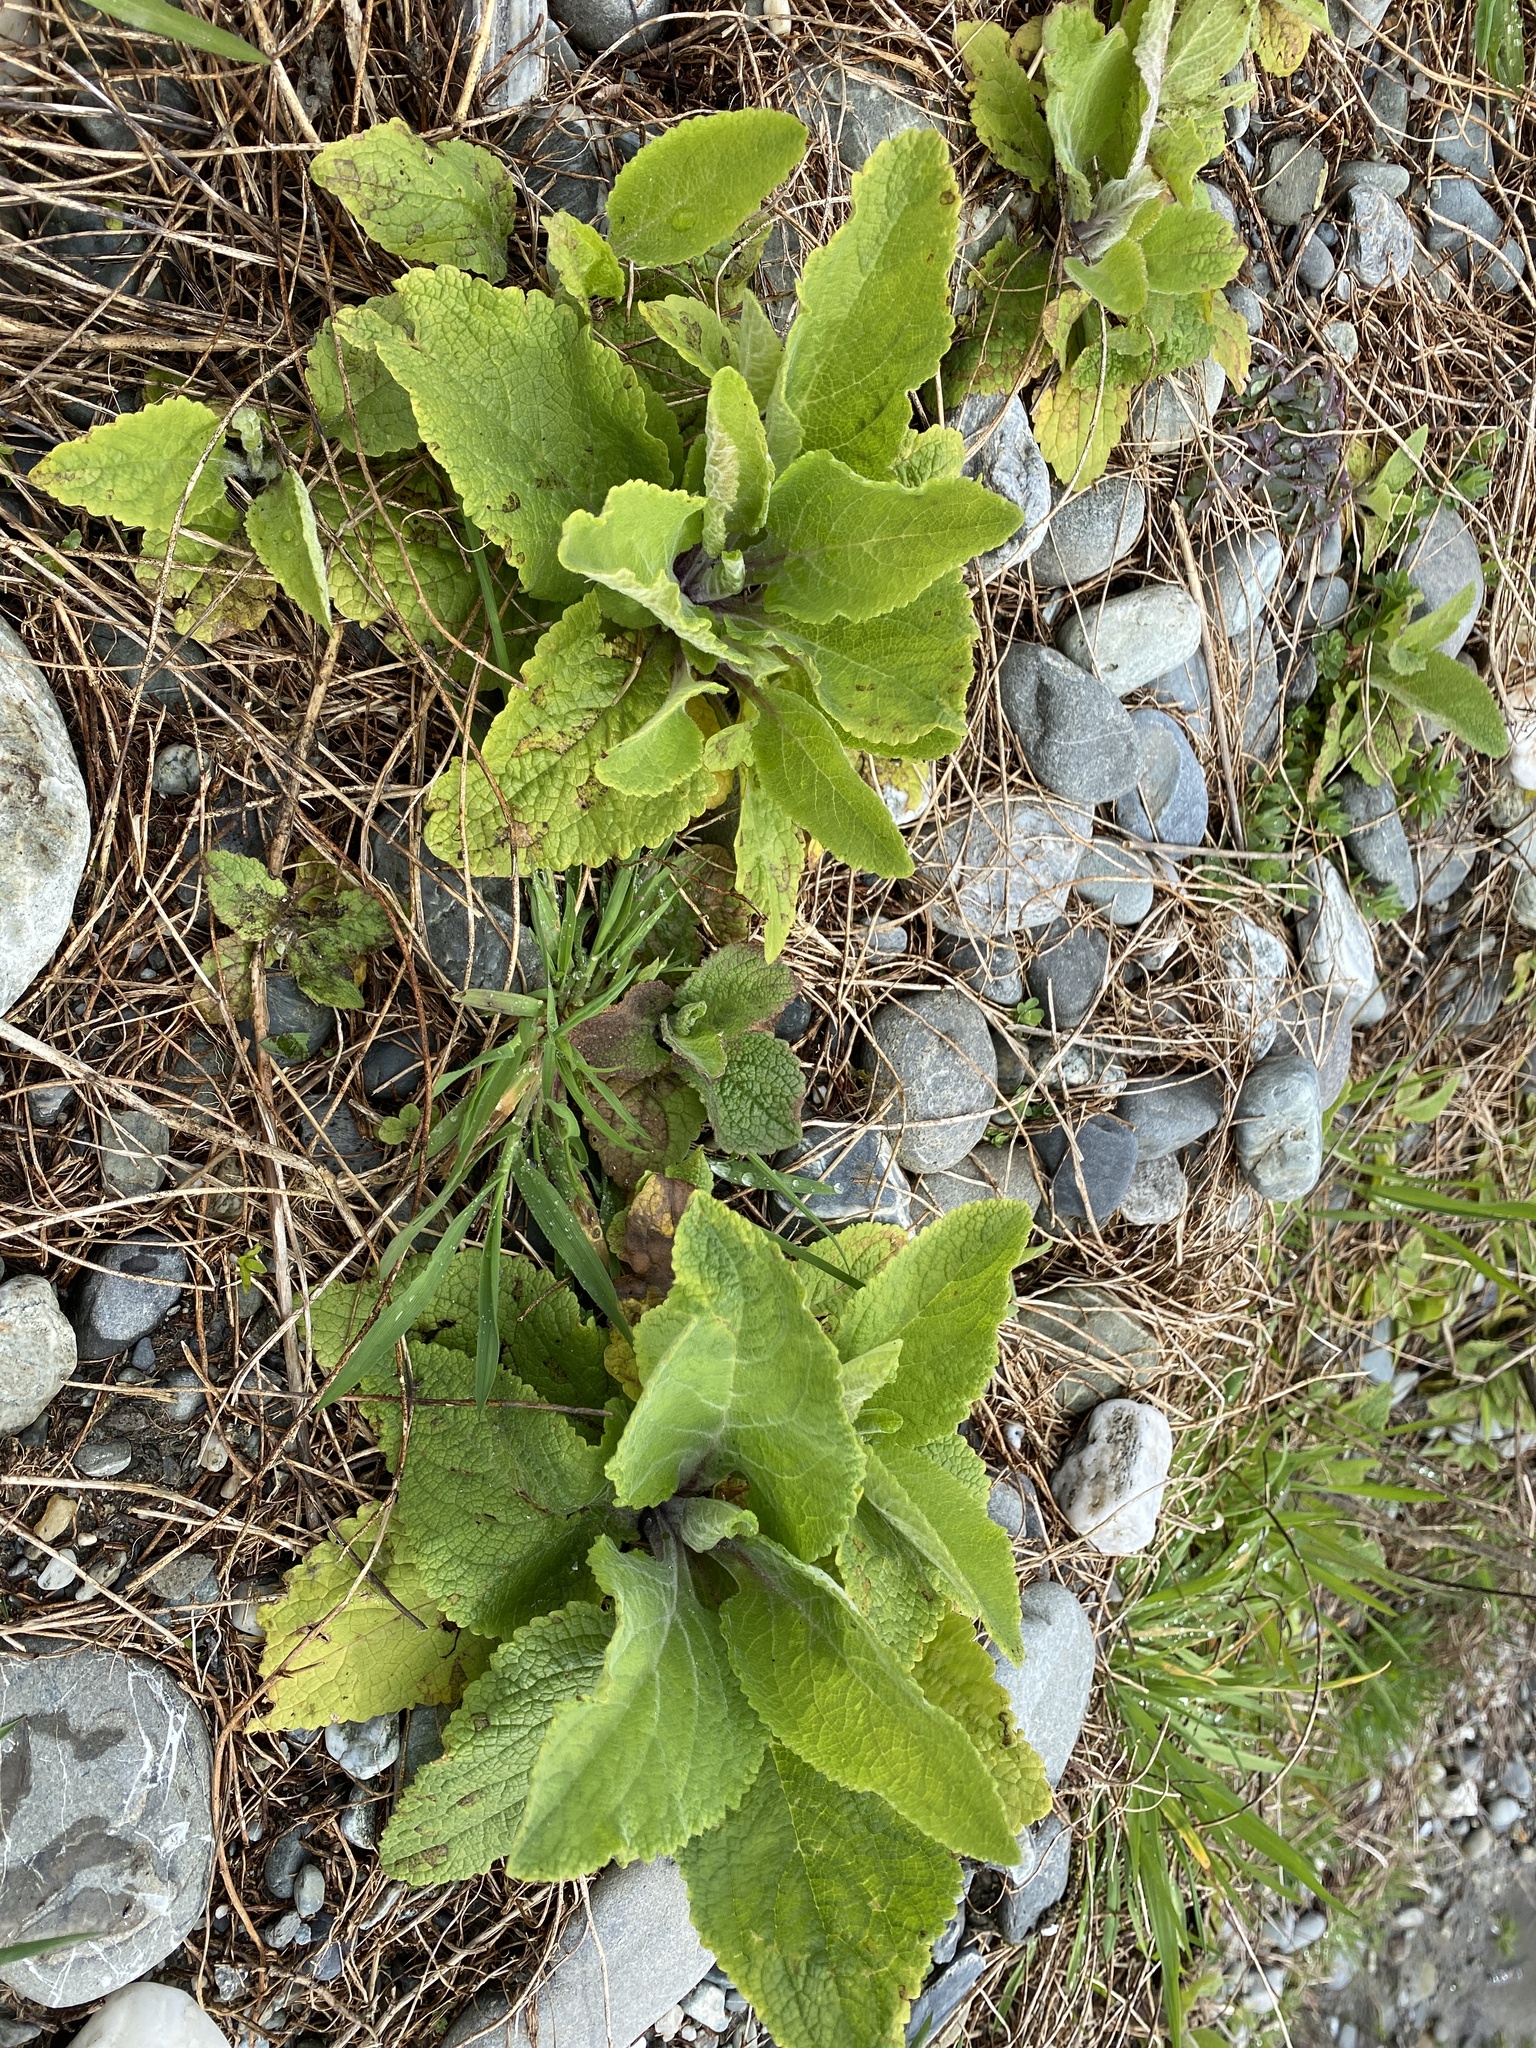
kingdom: Plantae
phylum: Tracheophyta
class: Magnoliopsida
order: Lamiales
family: Plantaginaceae
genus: Digitalis
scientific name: Digitalis purpurea
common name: Foxglove
